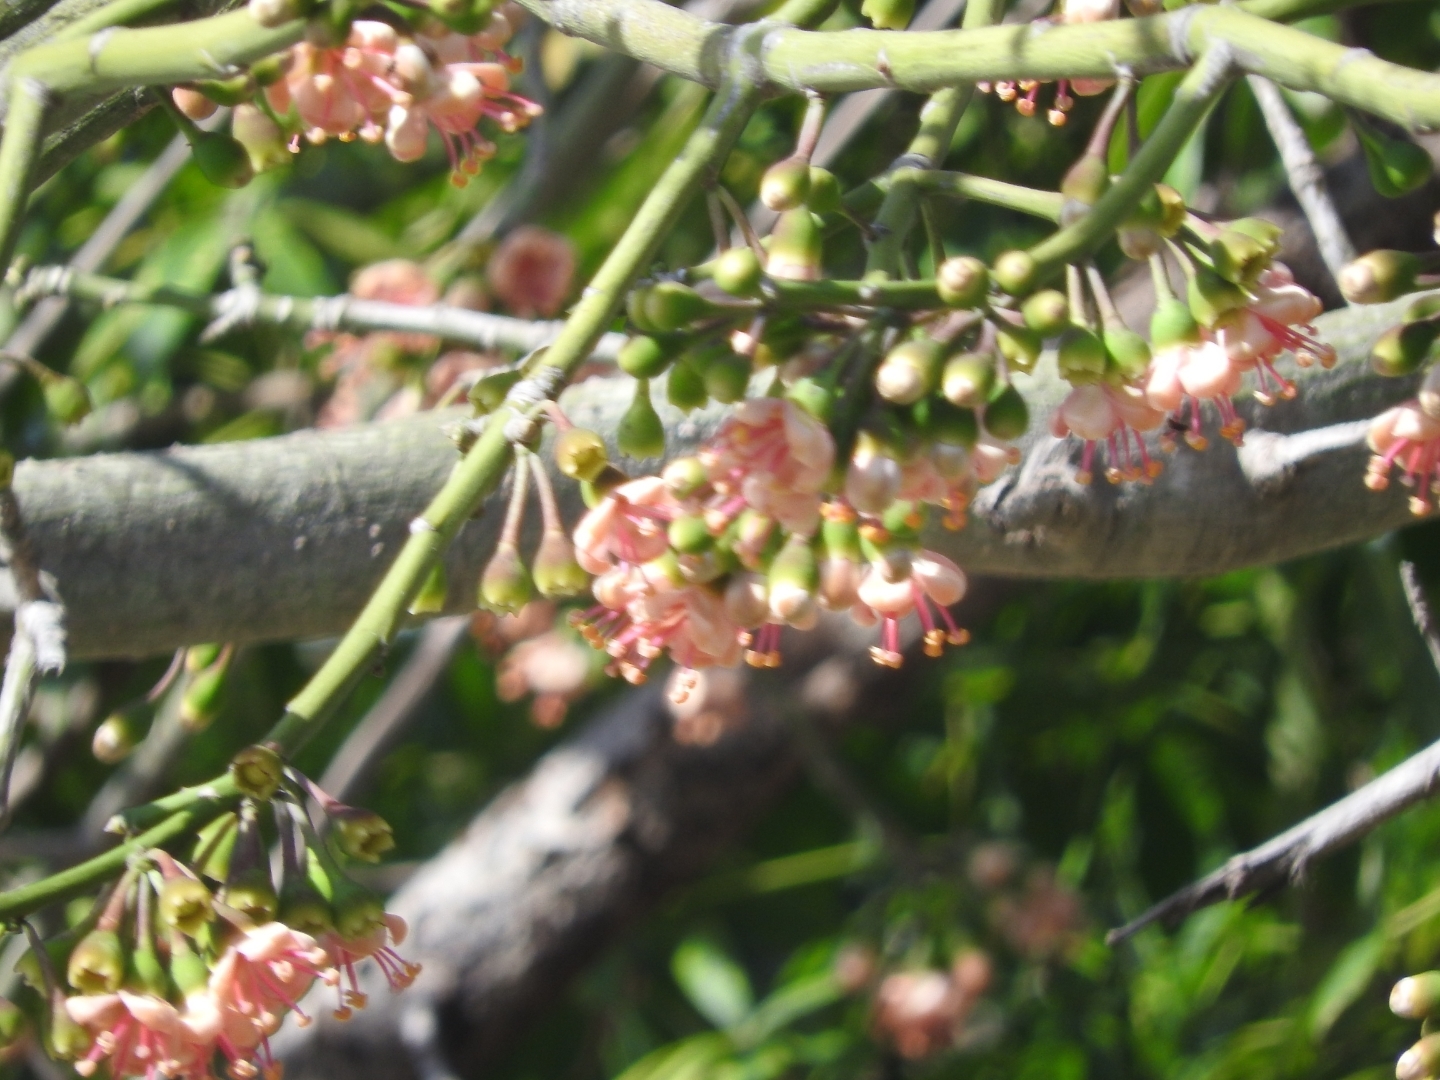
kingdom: Plantae
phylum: Tracheophyta
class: Magnoliopsida
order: Malvales
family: Malvaceae
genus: Ceiba
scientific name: Ceiba pentandra
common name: Kapok
